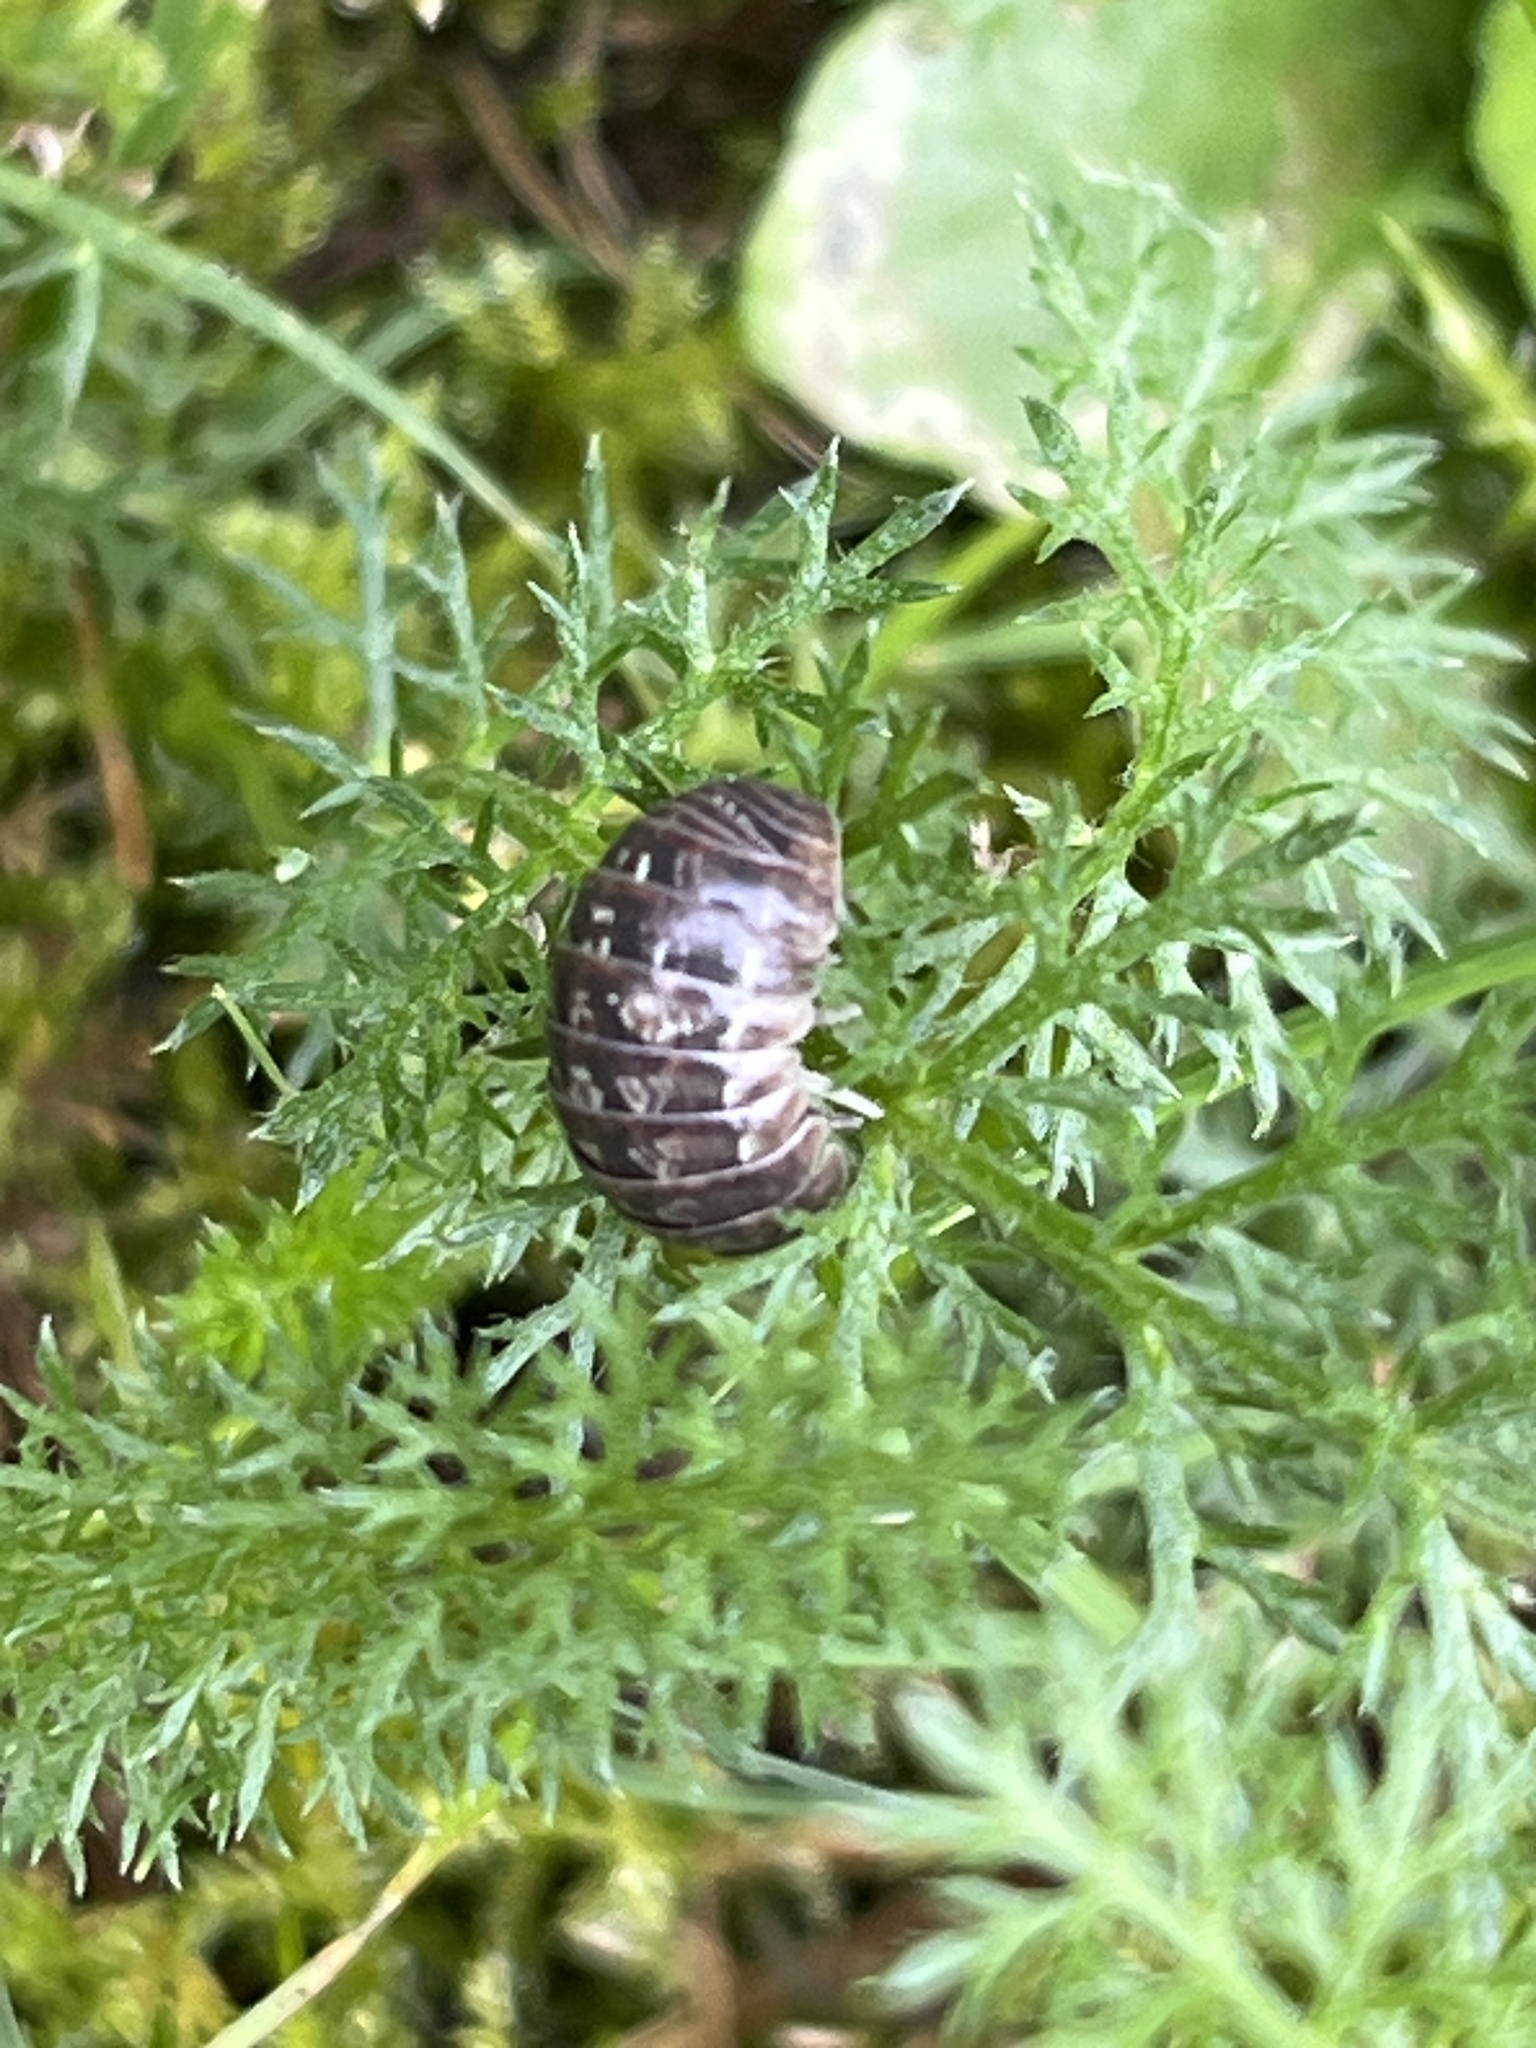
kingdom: Animalia
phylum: Arthropoda
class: Malacostraca
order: Isopoda
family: Armadillidiidae
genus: Armadillidium
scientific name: Armadillidium vulgare
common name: Common pill woodlouse
